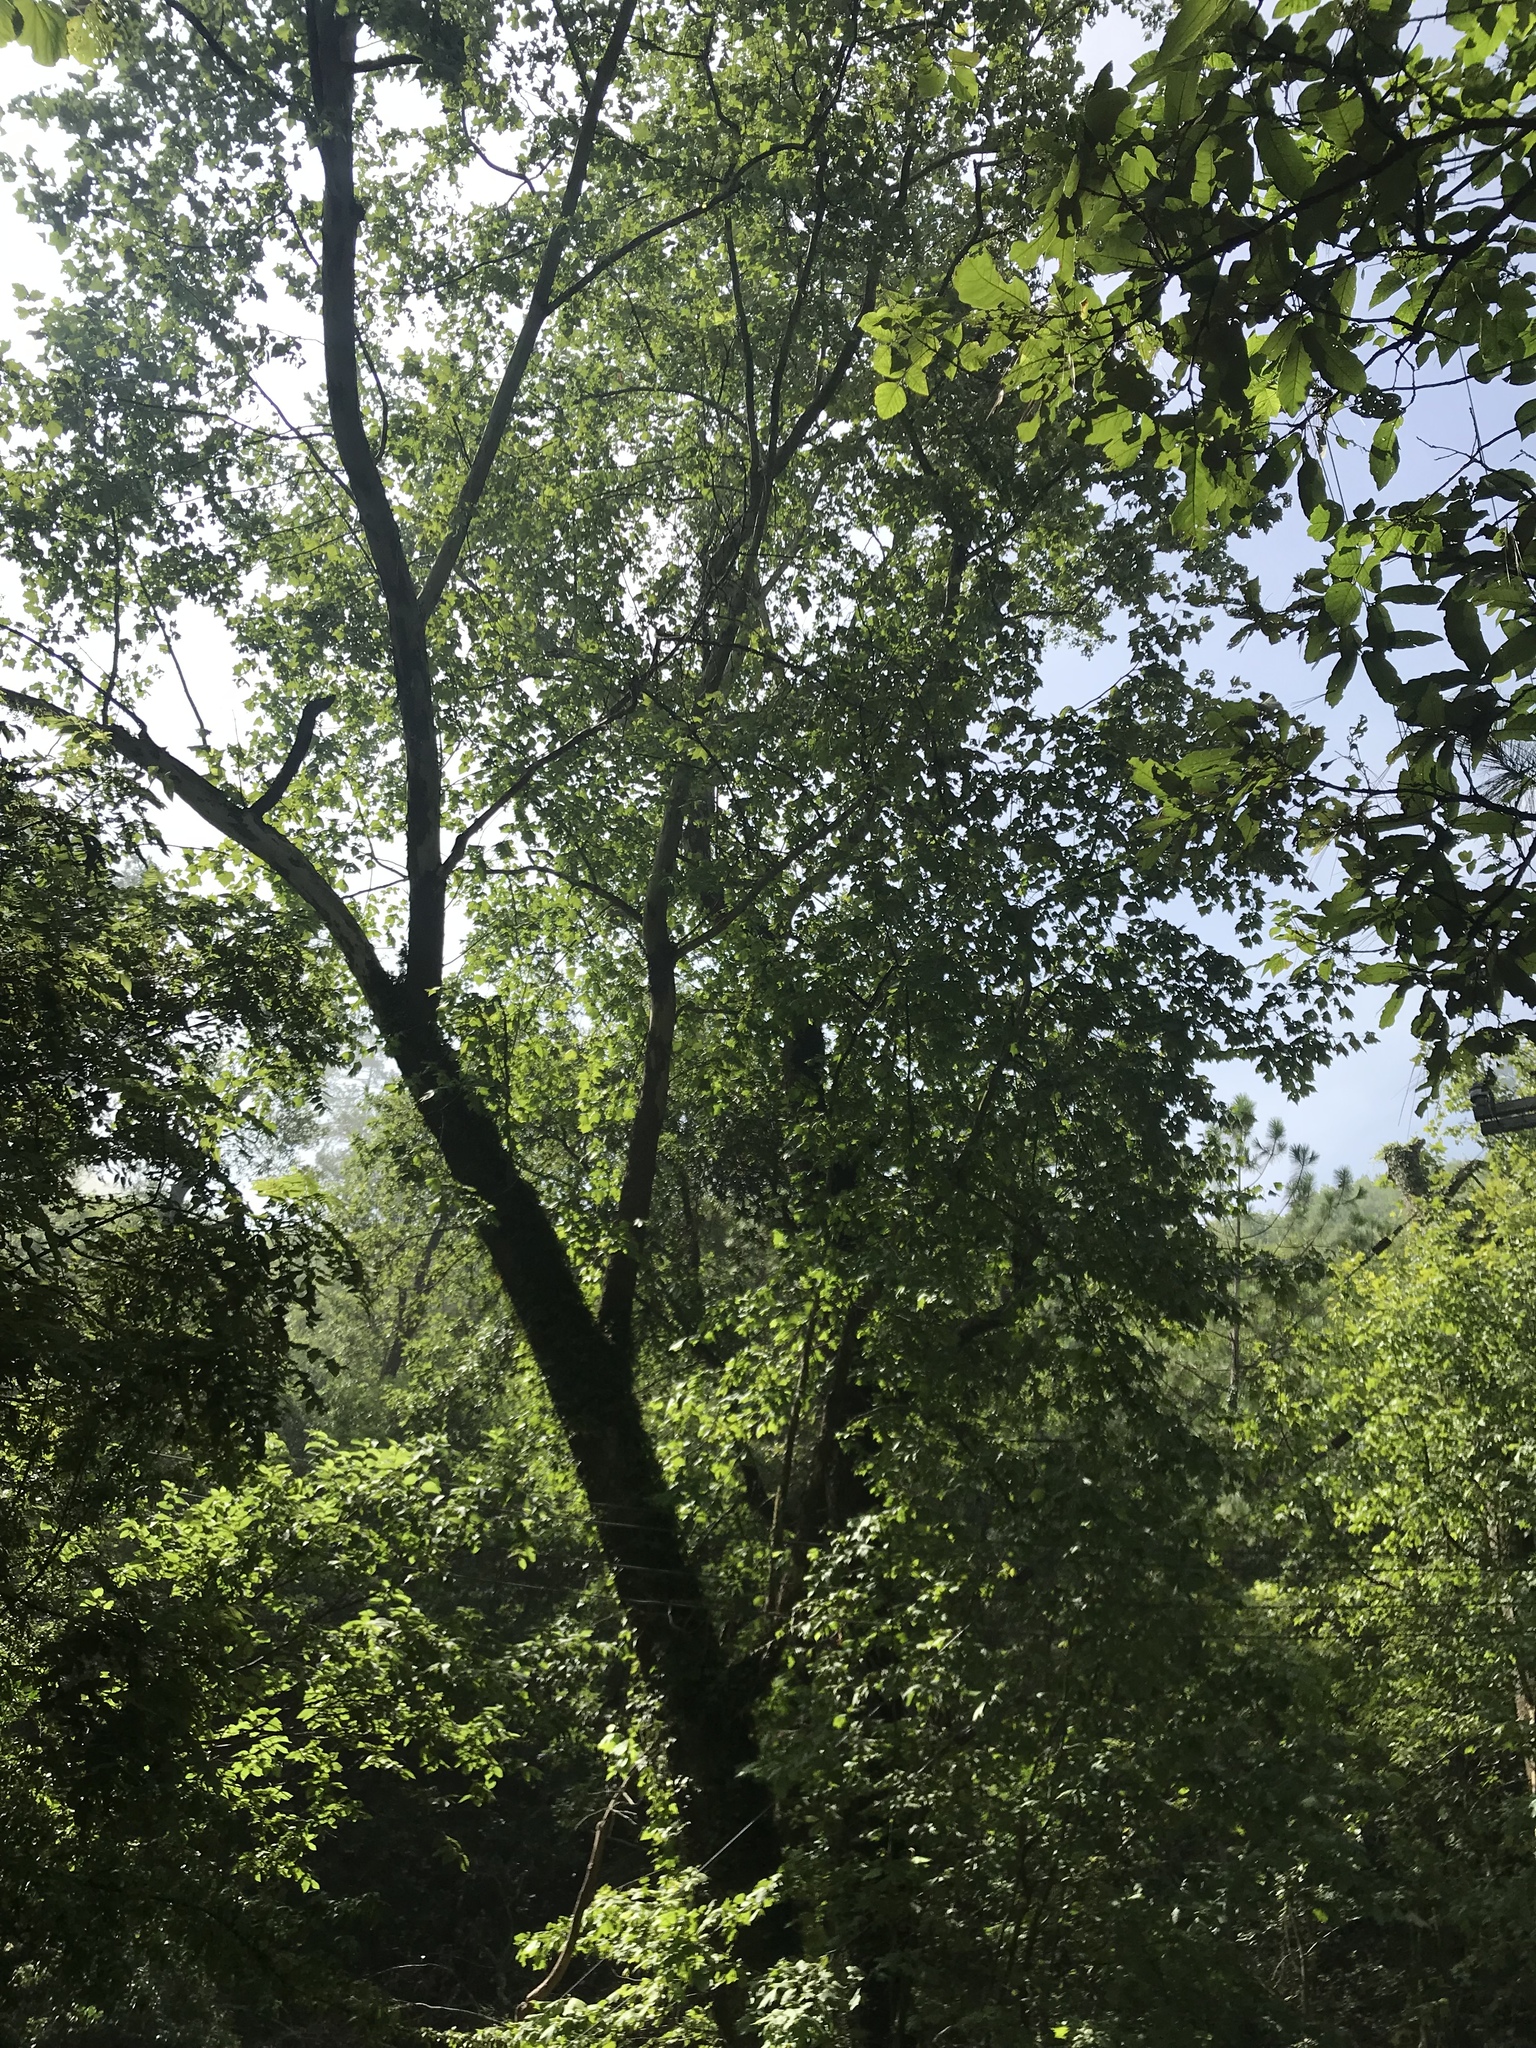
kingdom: Plantae
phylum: Tracheophyta
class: Magnoliopsida
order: Proteales
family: Platanaceae
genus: Platanus
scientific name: Platanus occidentalis
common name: American sycamore
